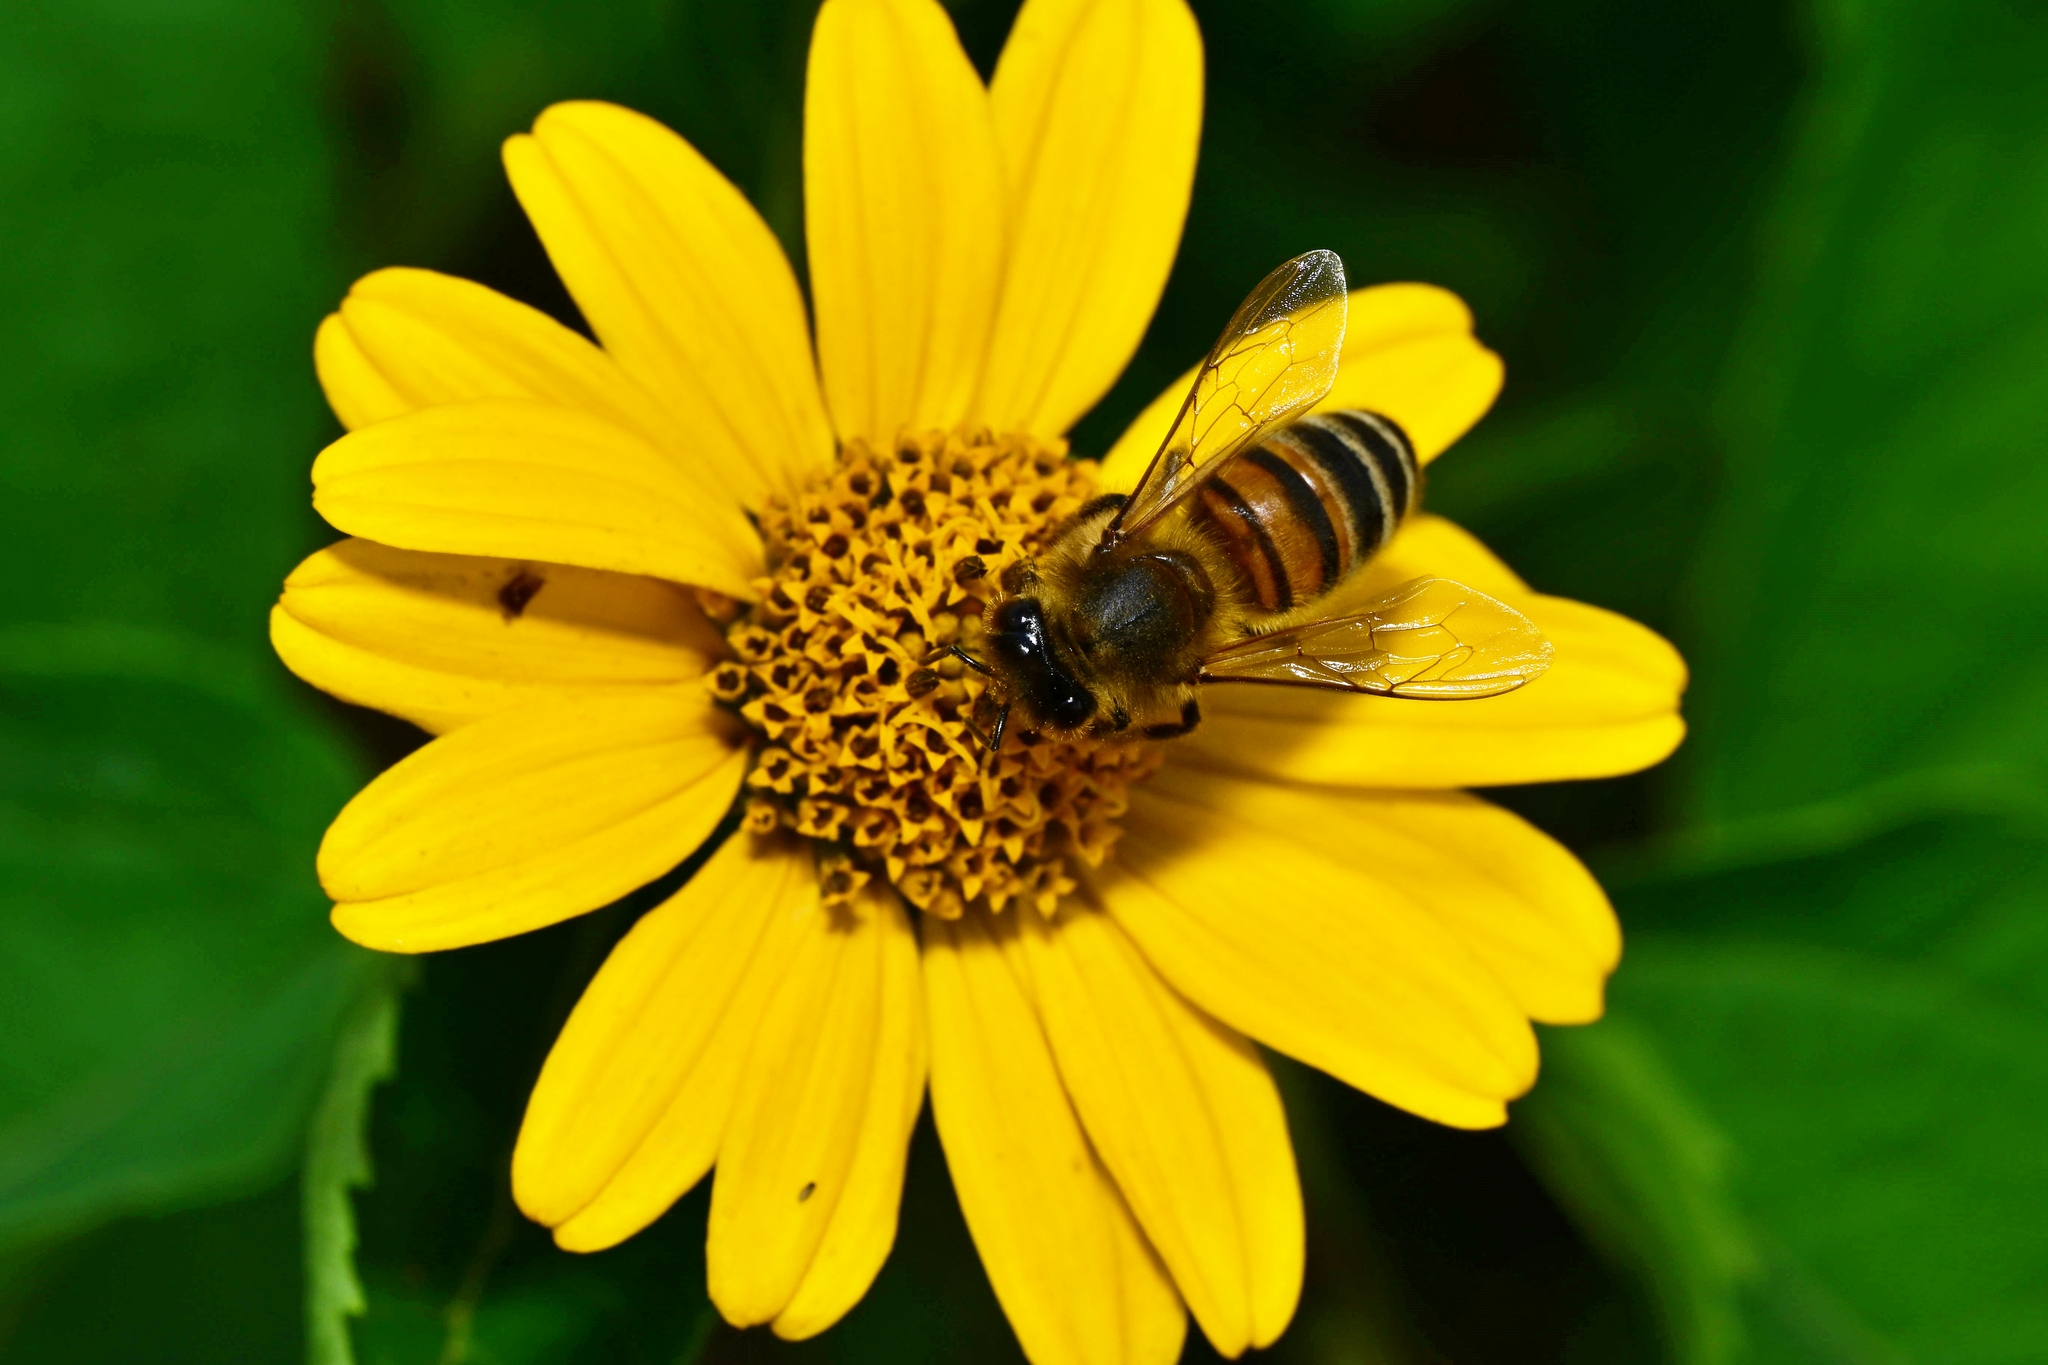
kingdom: Animalia
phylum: Arthropoda
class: Insecta
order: Hymenoptera
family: Apidae
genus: Apis
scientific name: Apis mellifera
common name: Honey bee
